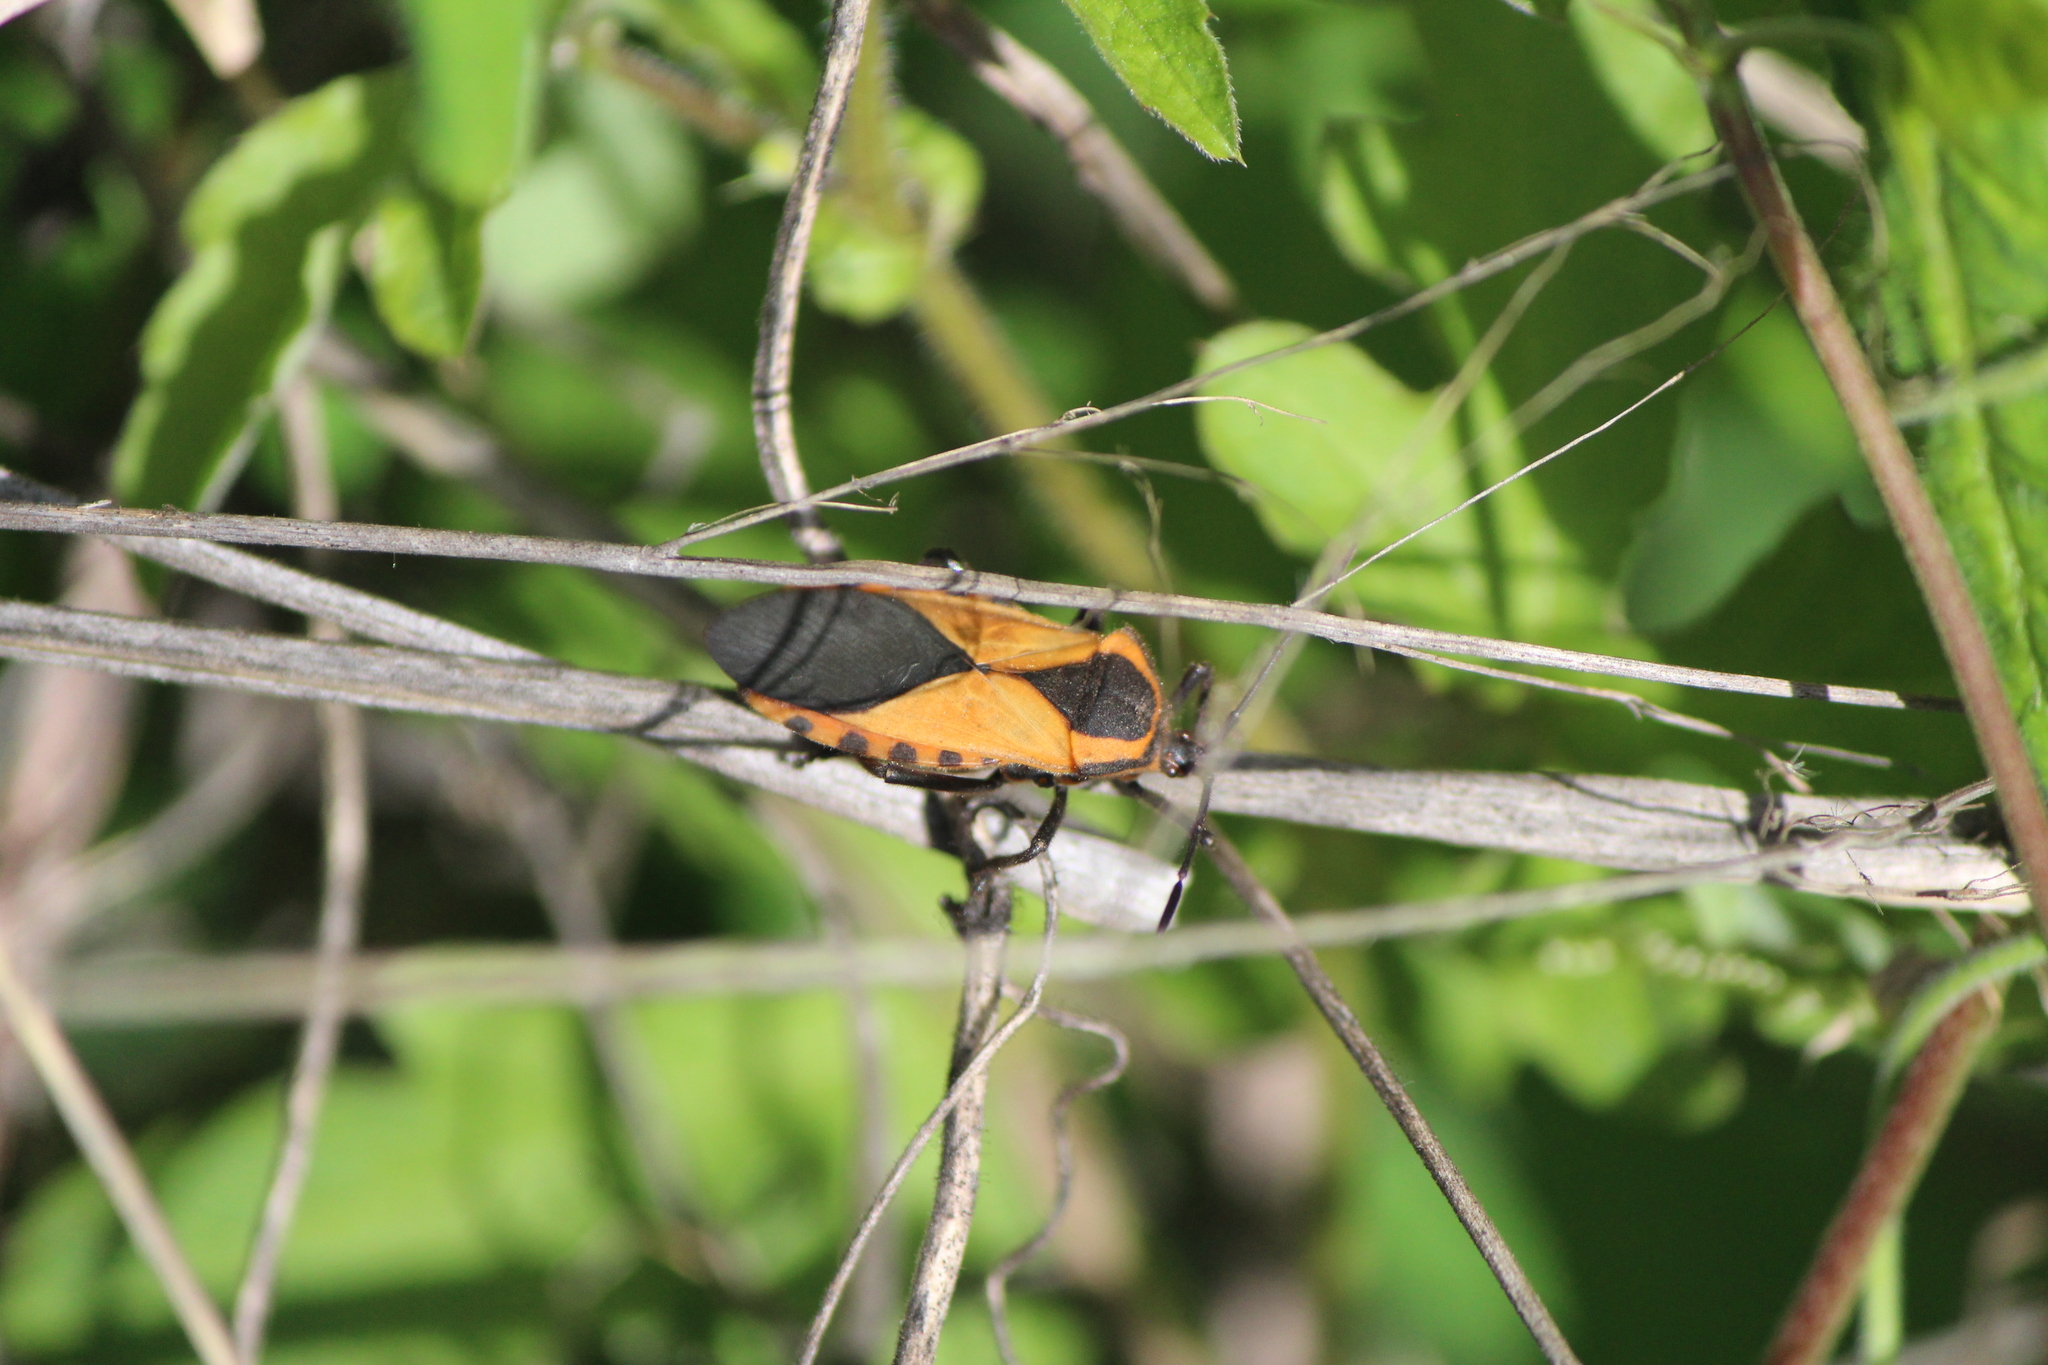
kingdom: Animalia
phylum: Arthropoda
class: Insecta
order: Hemiptera
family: Coreidae
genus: Sephina
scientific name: Sephina dorsalis
